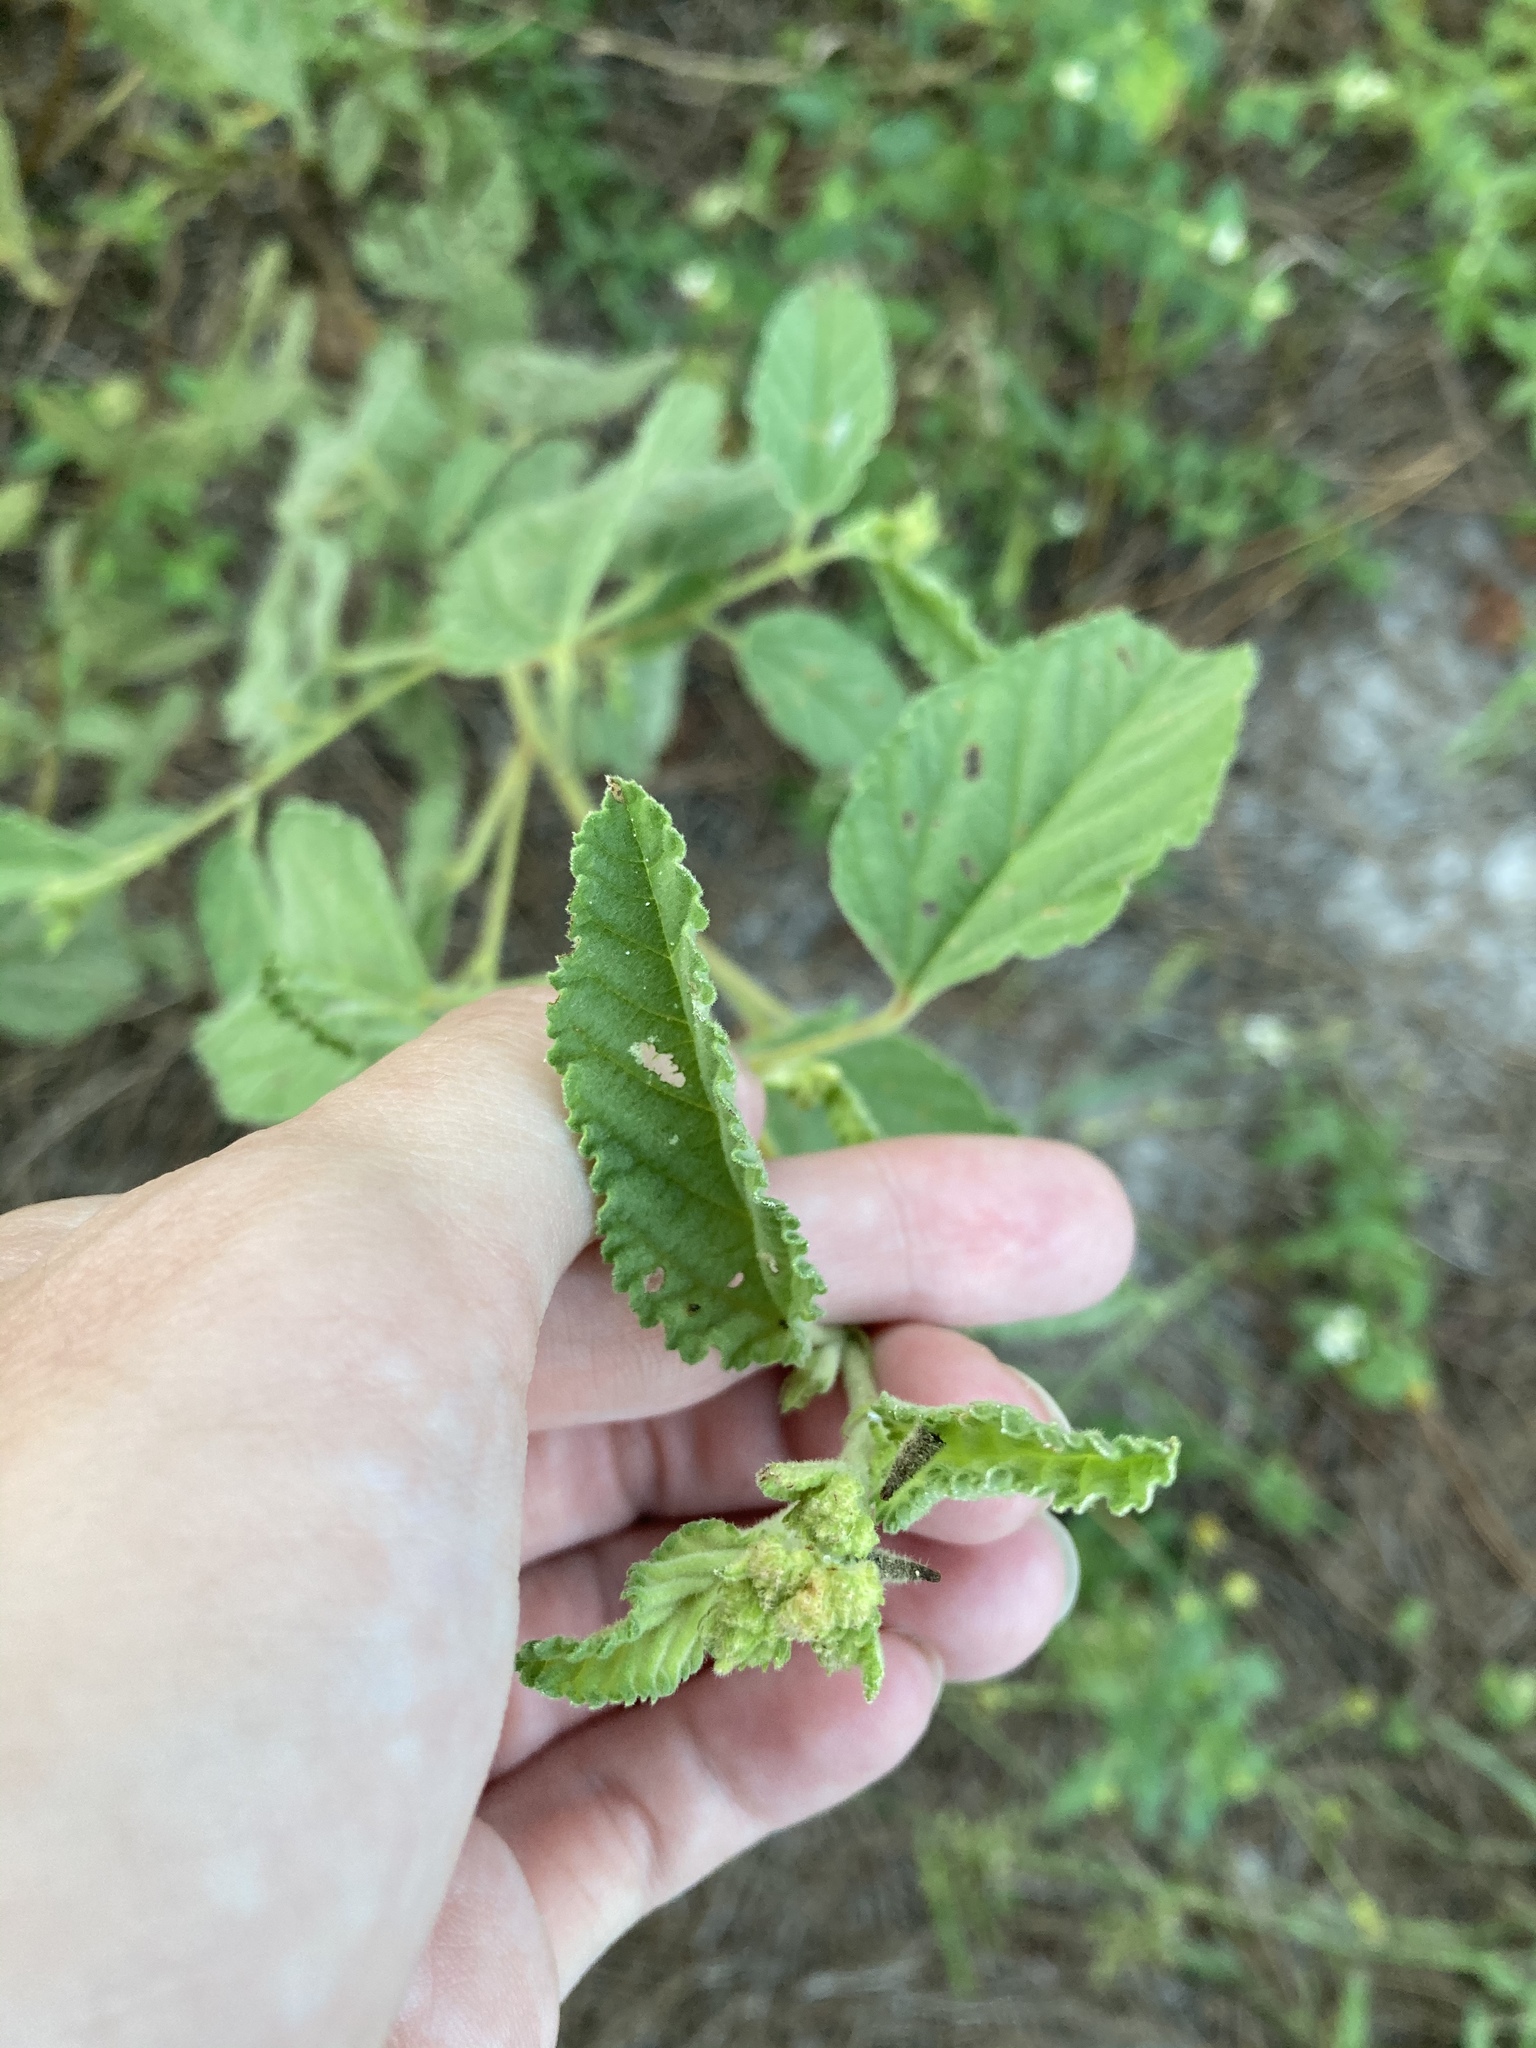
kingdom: Plantae
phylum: Tracheophyta
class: Magnoliopsida
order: Malvales
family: Malvaceae
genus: Sida
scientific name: Sida cordifolia
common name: Ilima
